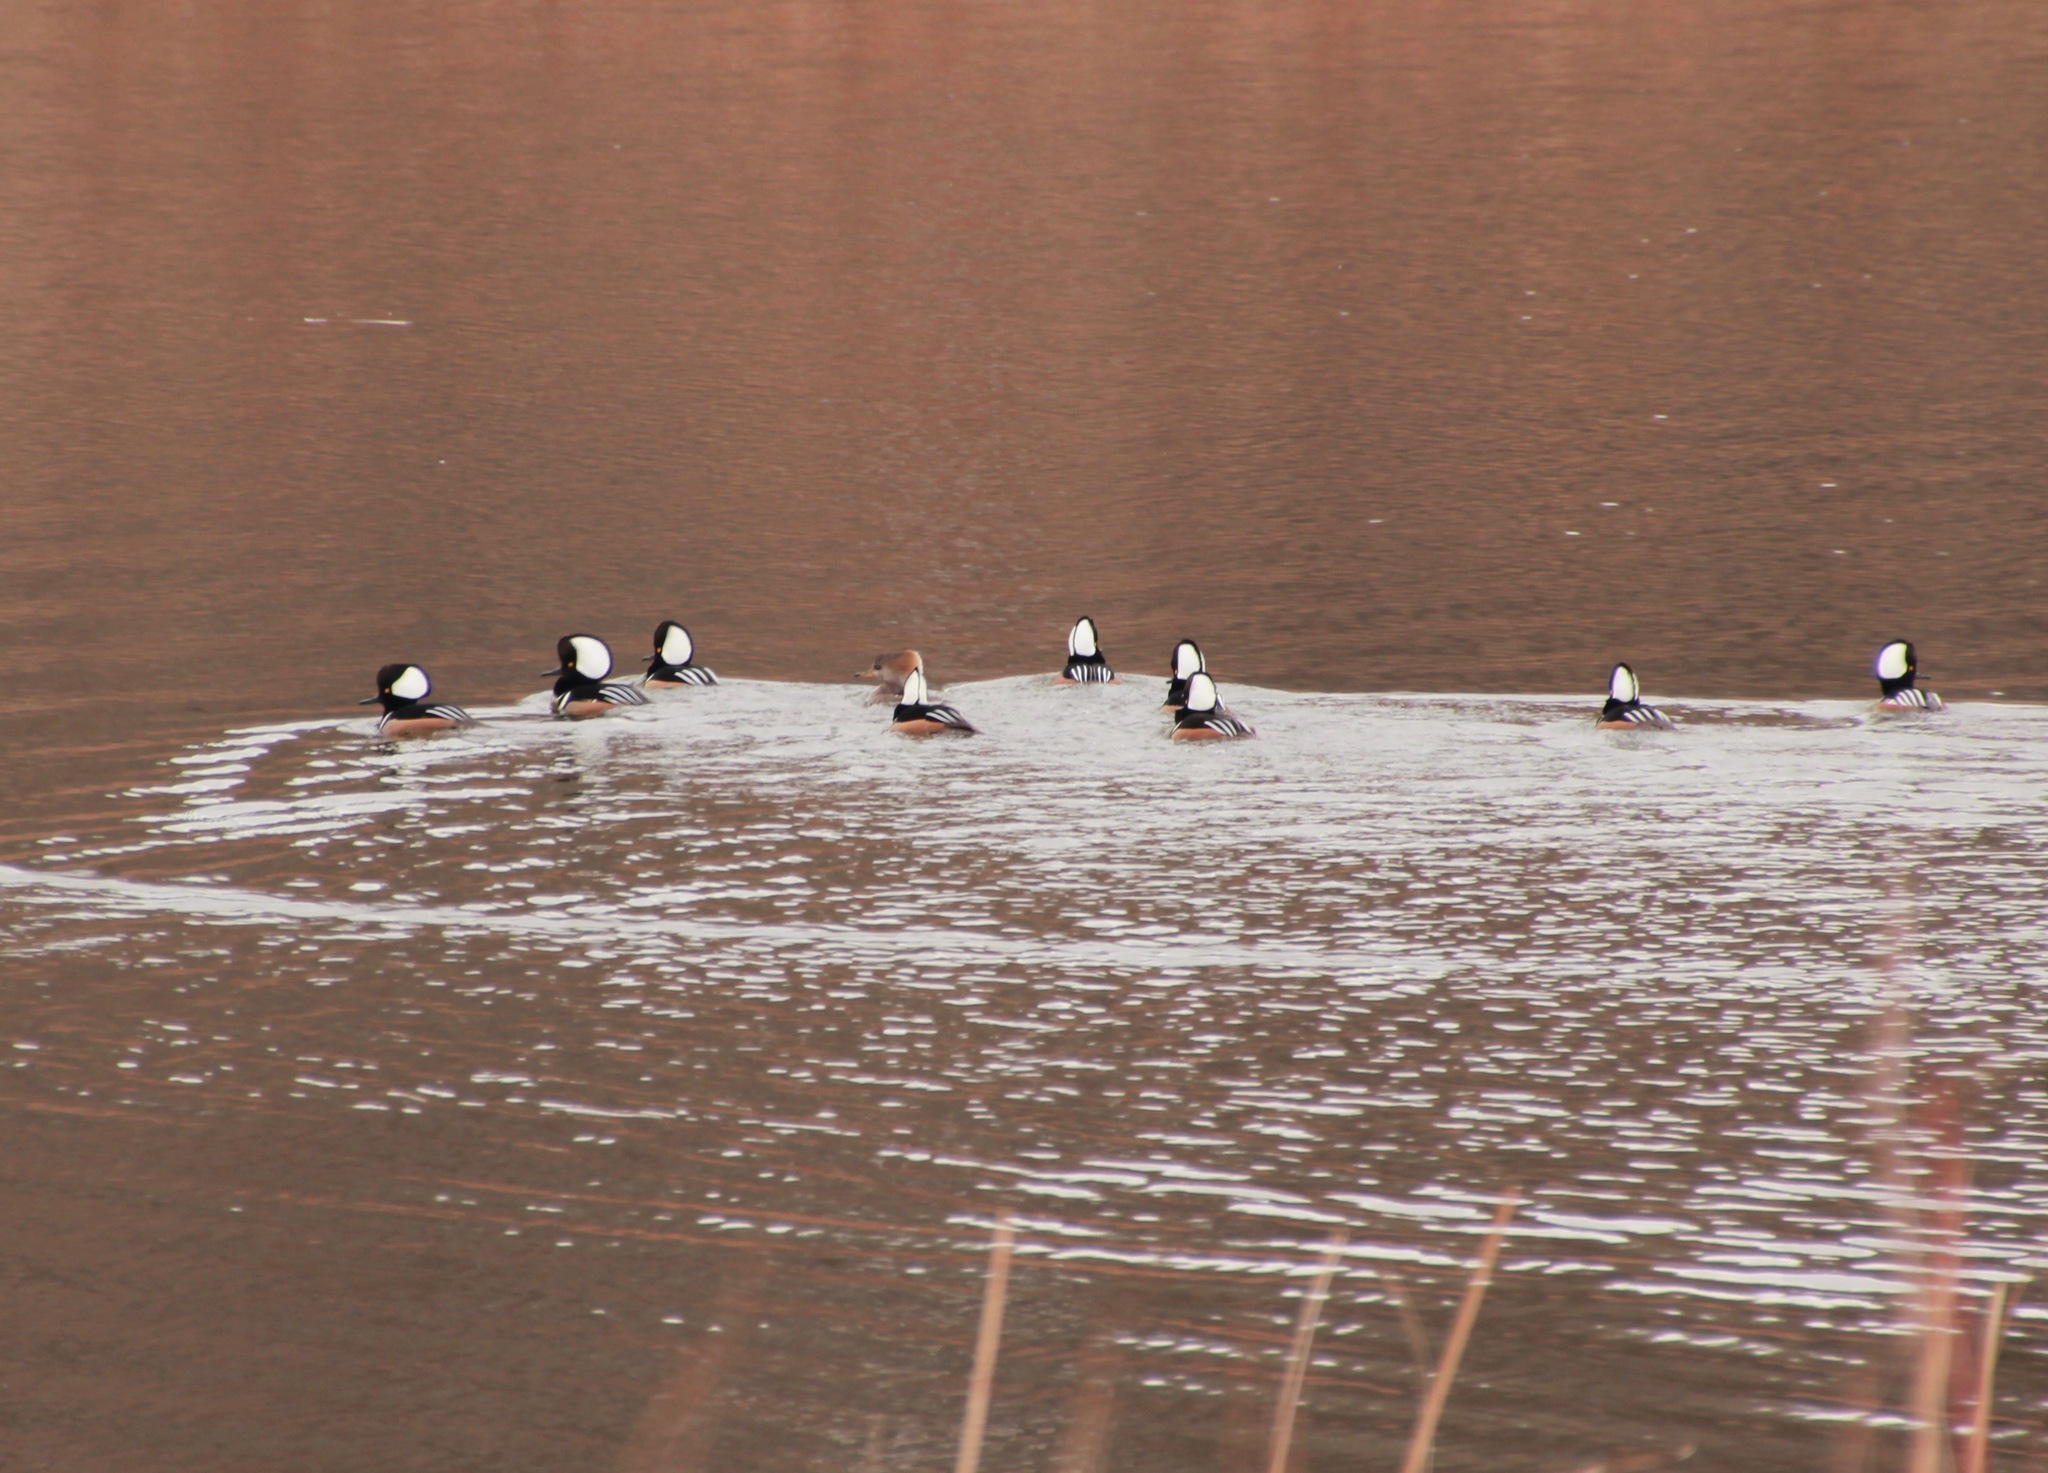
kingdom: Animalia
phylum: Chordata
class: Aves
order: Anseriformes
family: Anatidae
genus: Lophodytes
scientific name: Lophodytes cucullatus
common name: Hooded merganser
